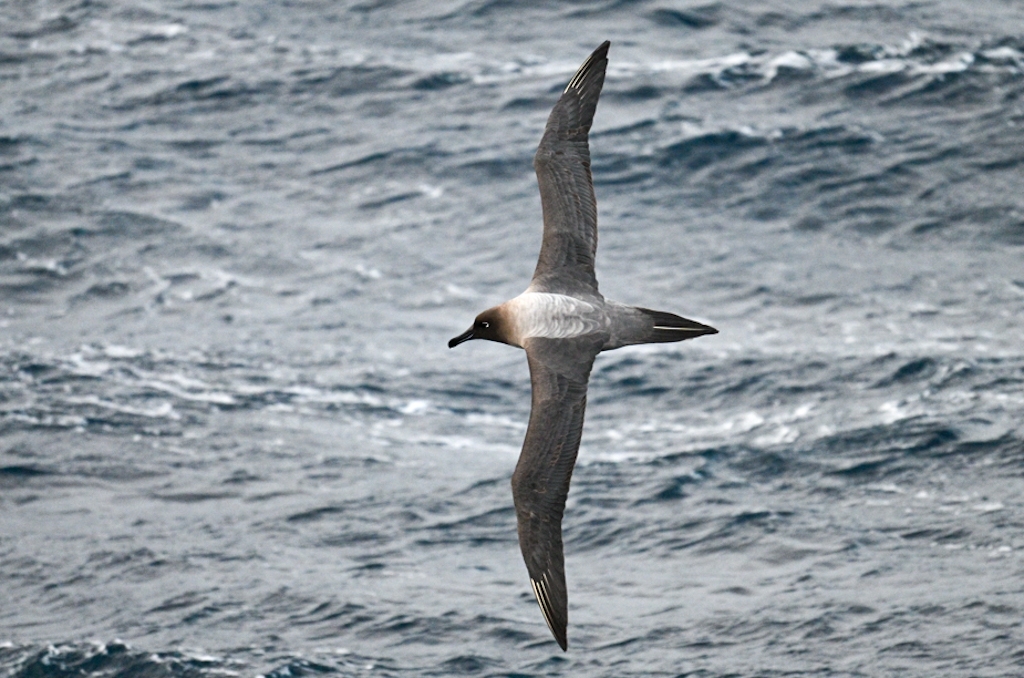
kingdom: Animalia
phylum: Chordata
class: Aves
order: Procellariiformes
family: Diomedeidae
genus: Phoebetria
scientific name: Phoebetria palpebrata
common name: Light-mantled albatross
